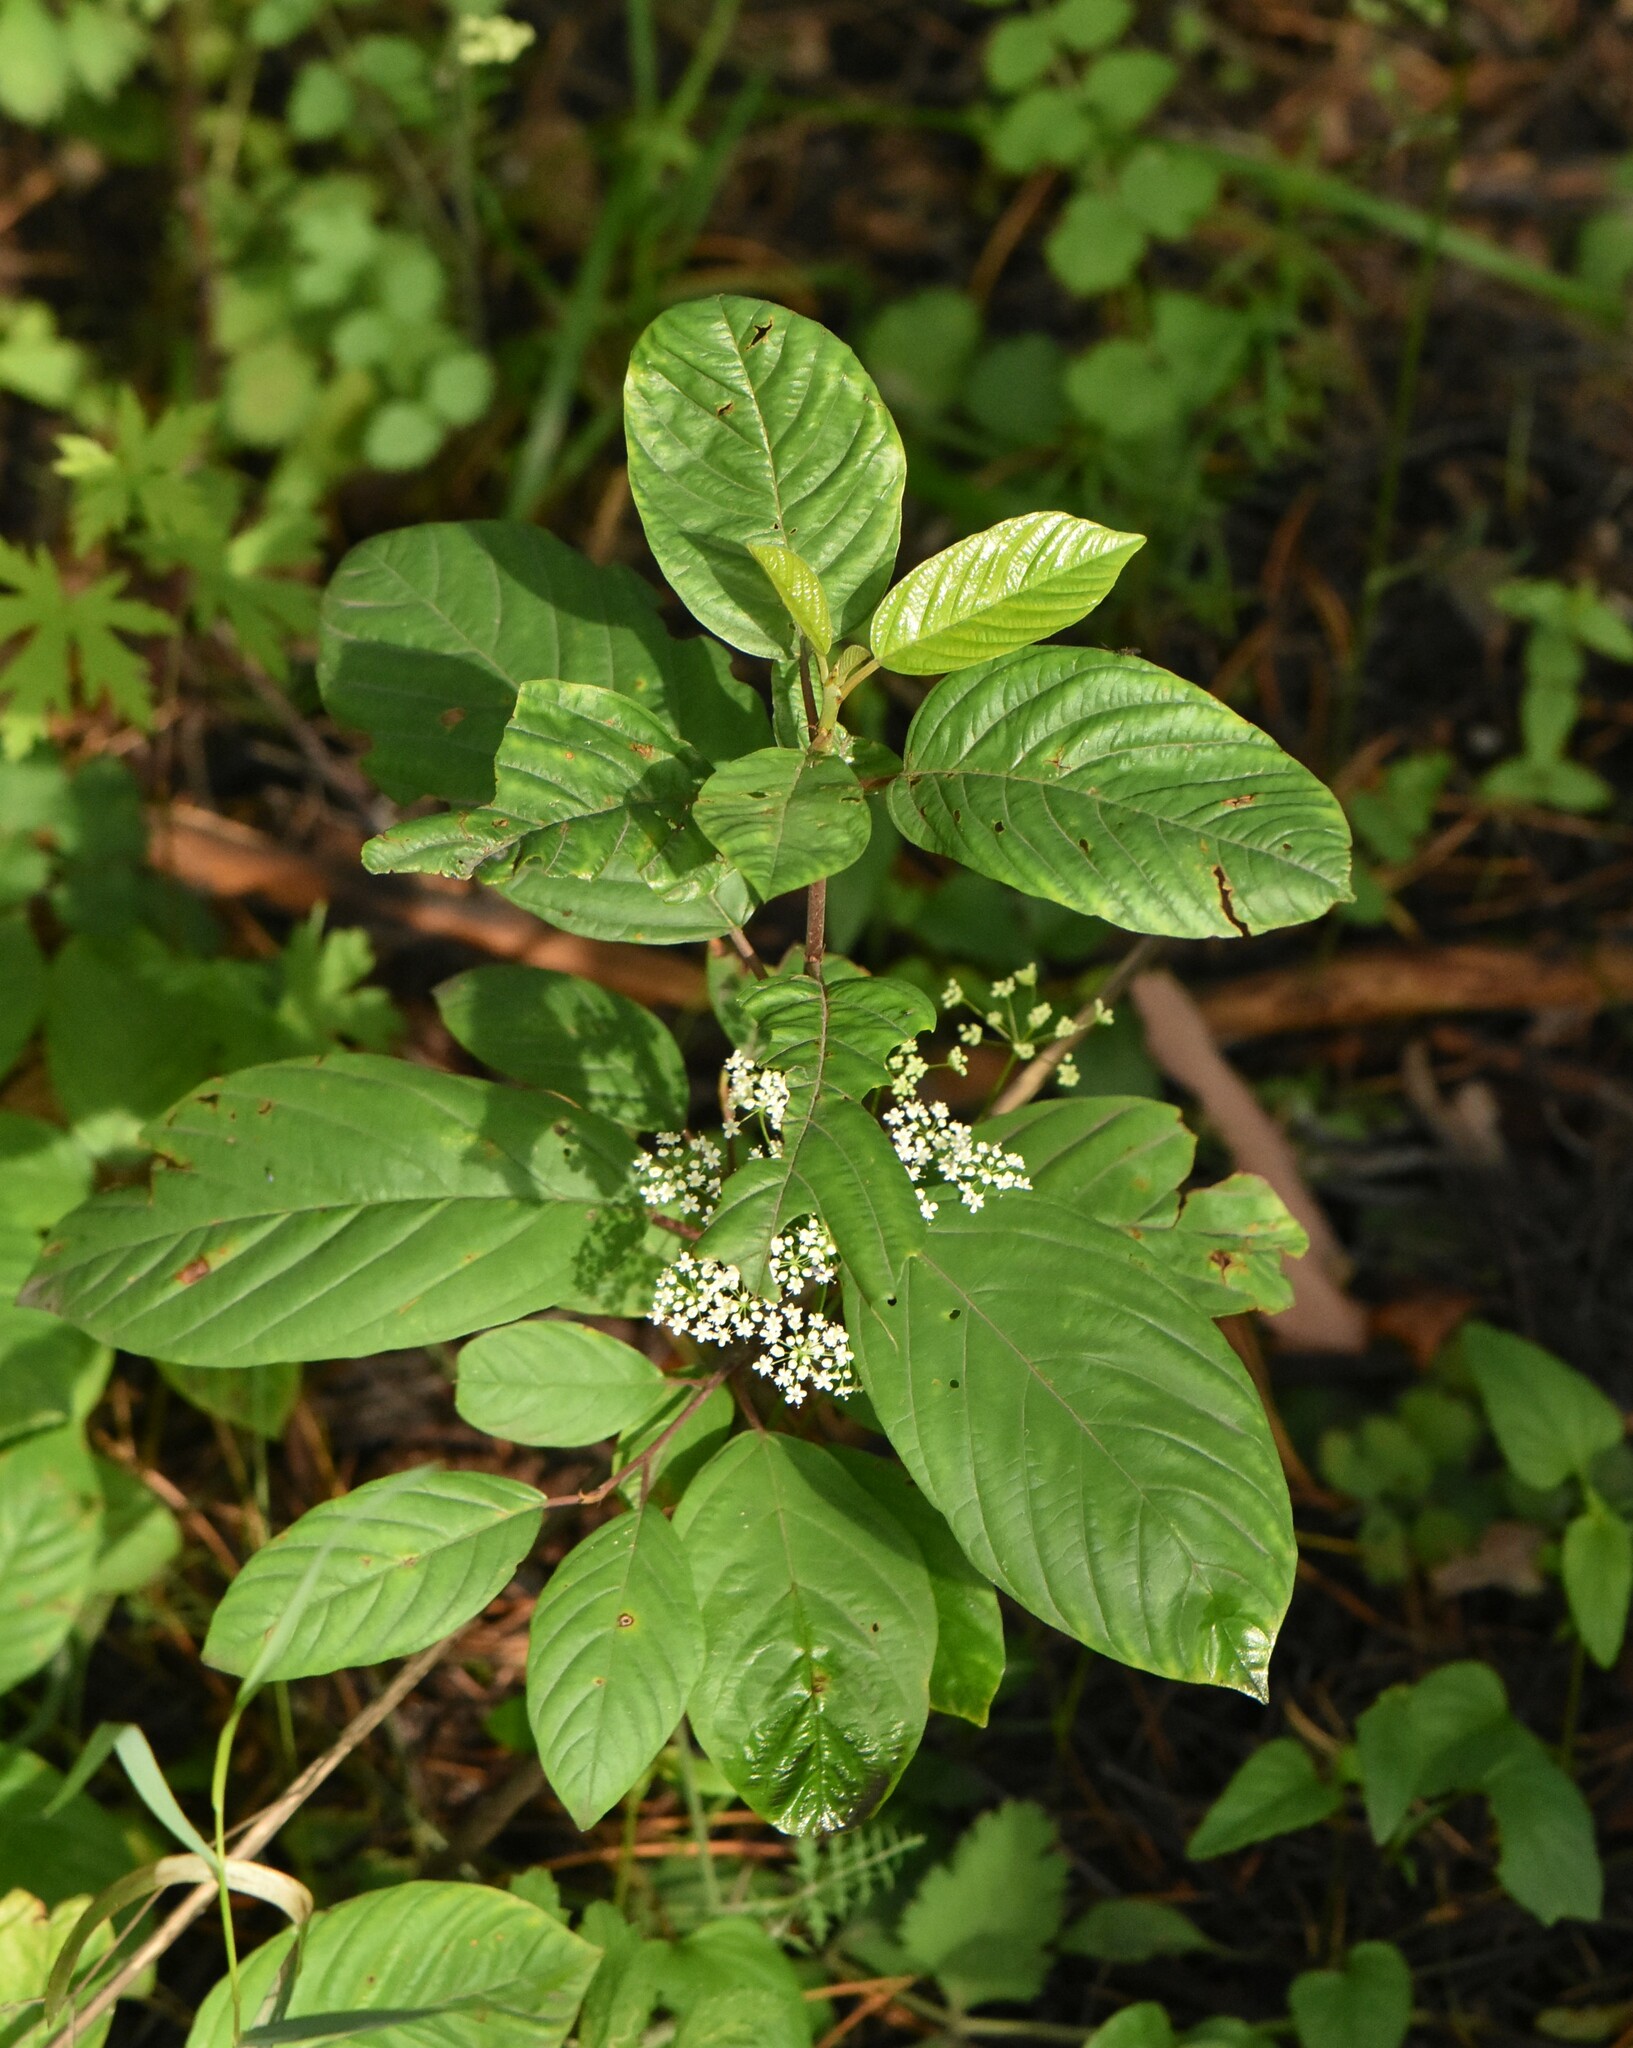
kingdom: Plantae
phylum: Tracheophyta
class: Magnoliopsida
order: Rosales
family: Rhamnaceae
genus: Frangula
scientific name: Frangula alnus
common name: Alder buckthorn
